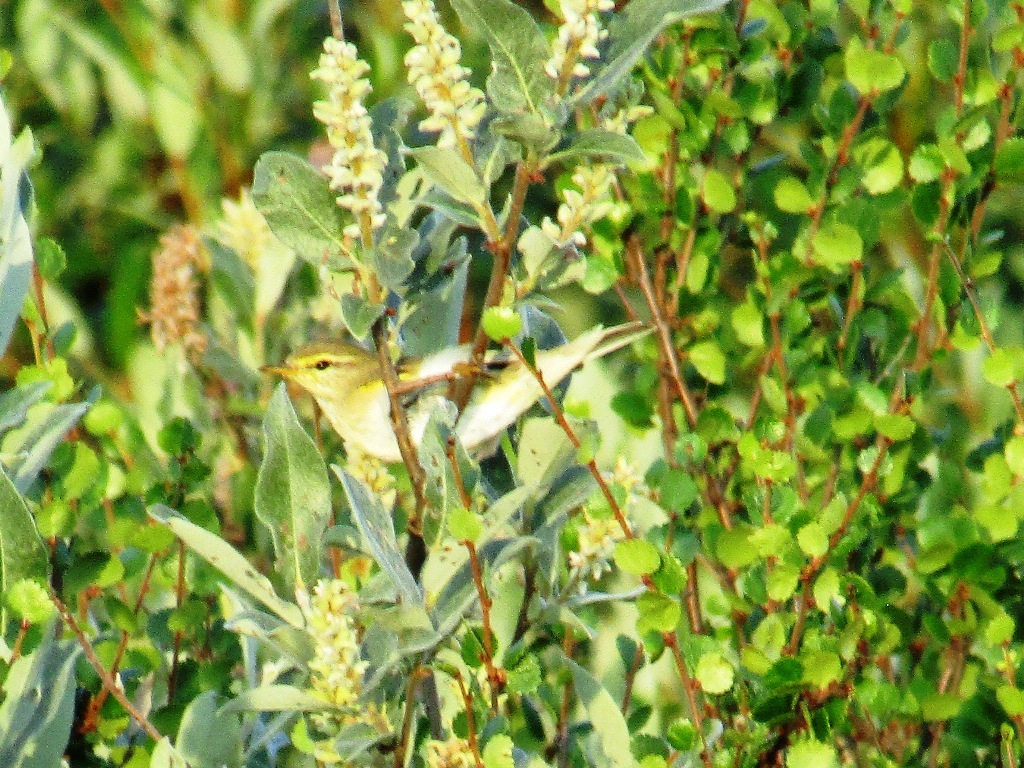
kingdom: Animalia
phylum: Chordata
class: Aves
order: Passeriformes
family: Phylloscopidae
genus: Phylloscopus
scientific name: Phylloscopus trochilus
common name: Willow warbler
